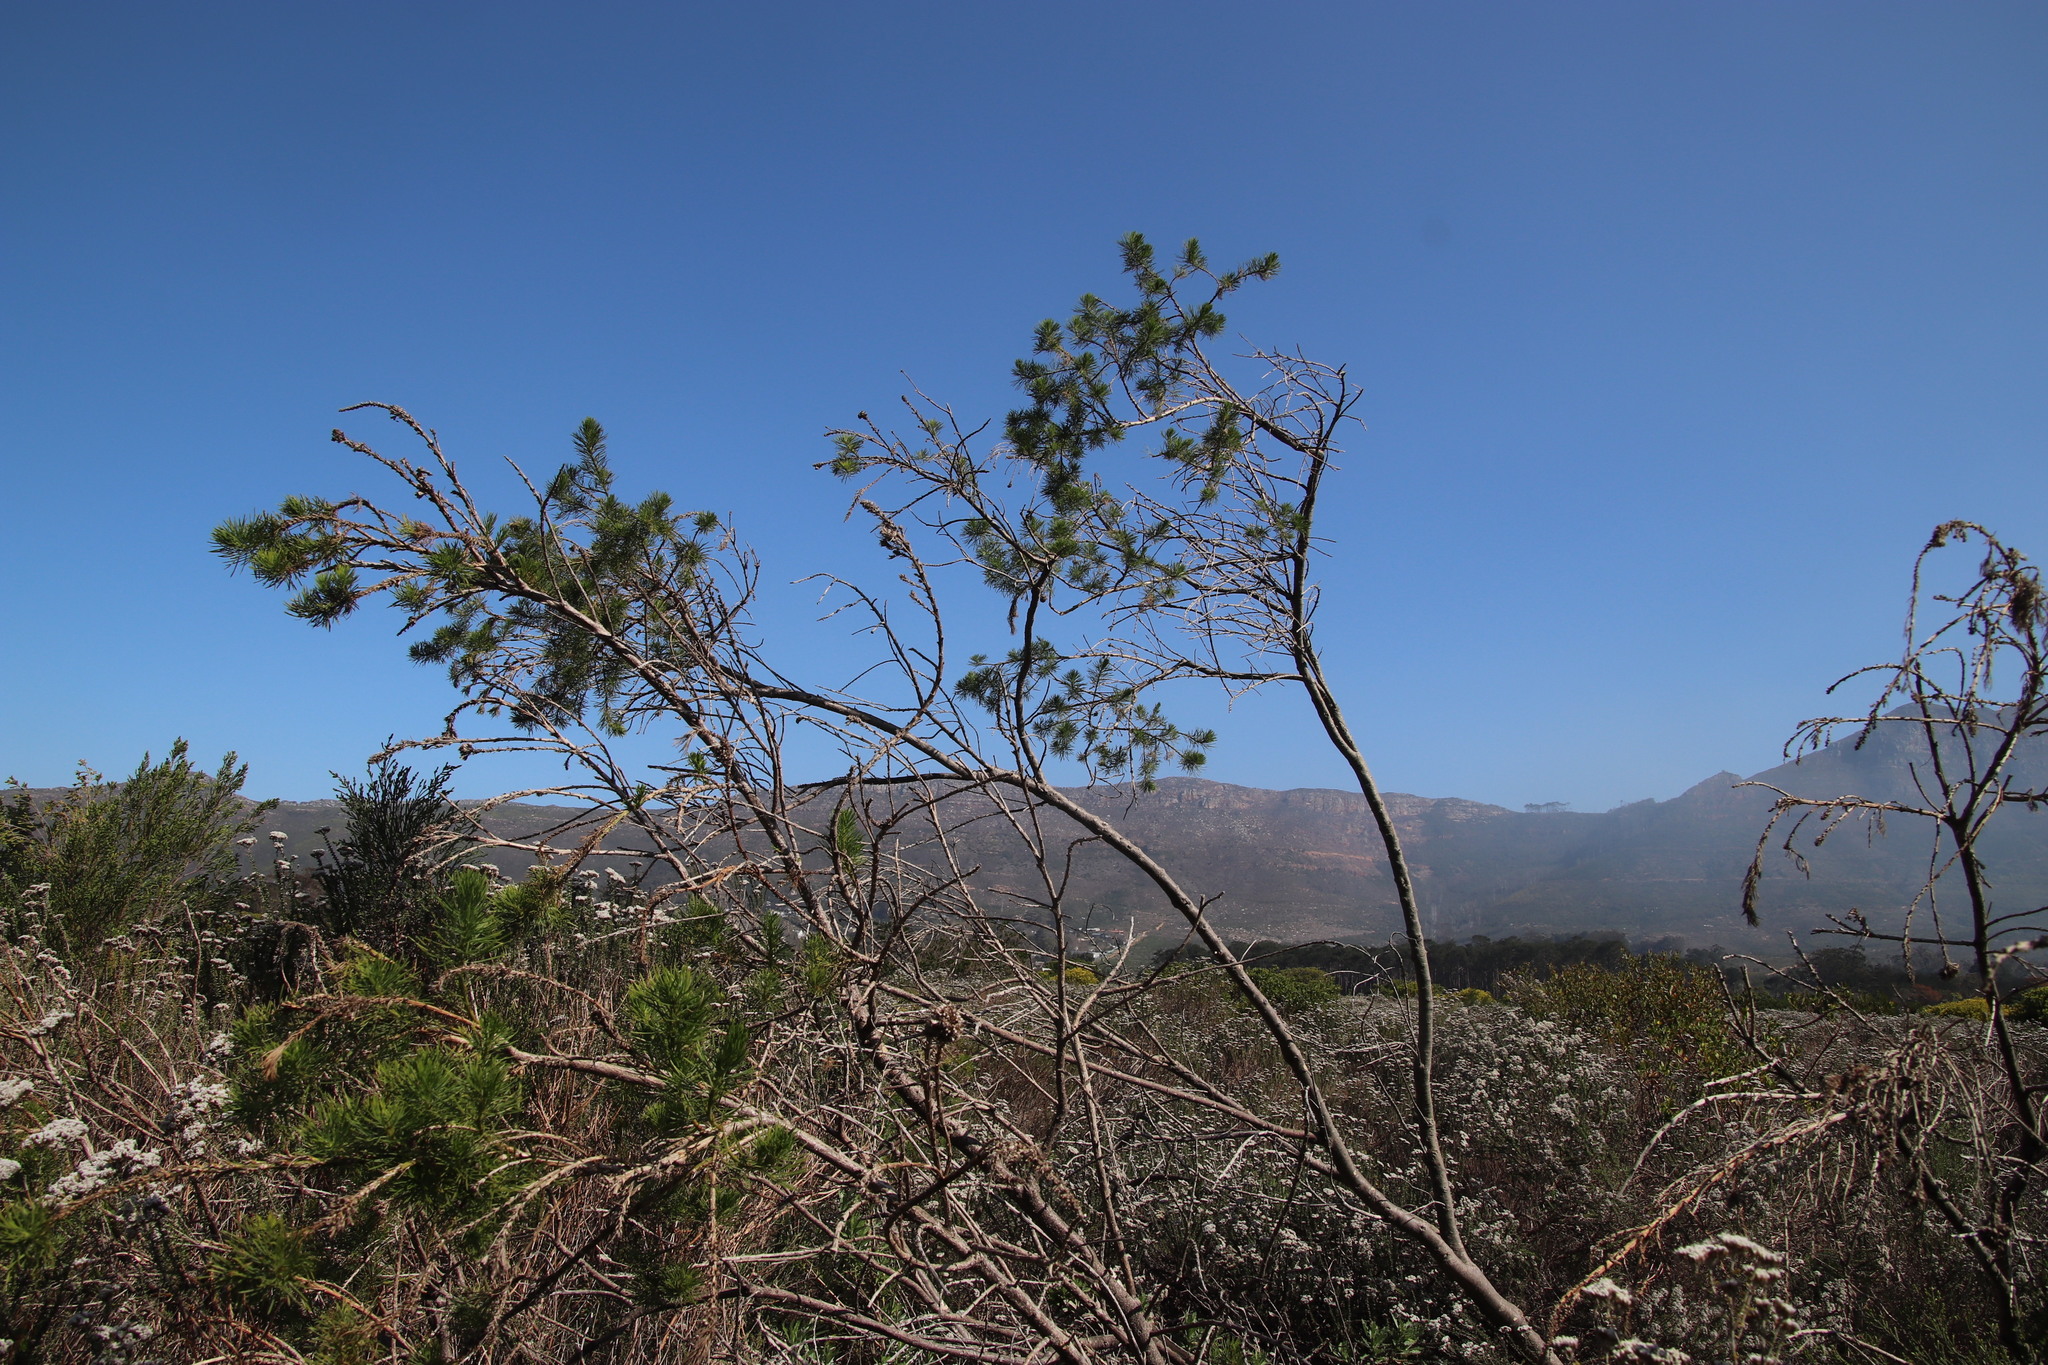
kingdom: Plantae
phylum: Tracheophyta
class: Magnoliopsida
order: Fabales
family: Fabaceae
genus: Psoralea
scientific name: Psoralea pinnata
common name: African scurfpea
